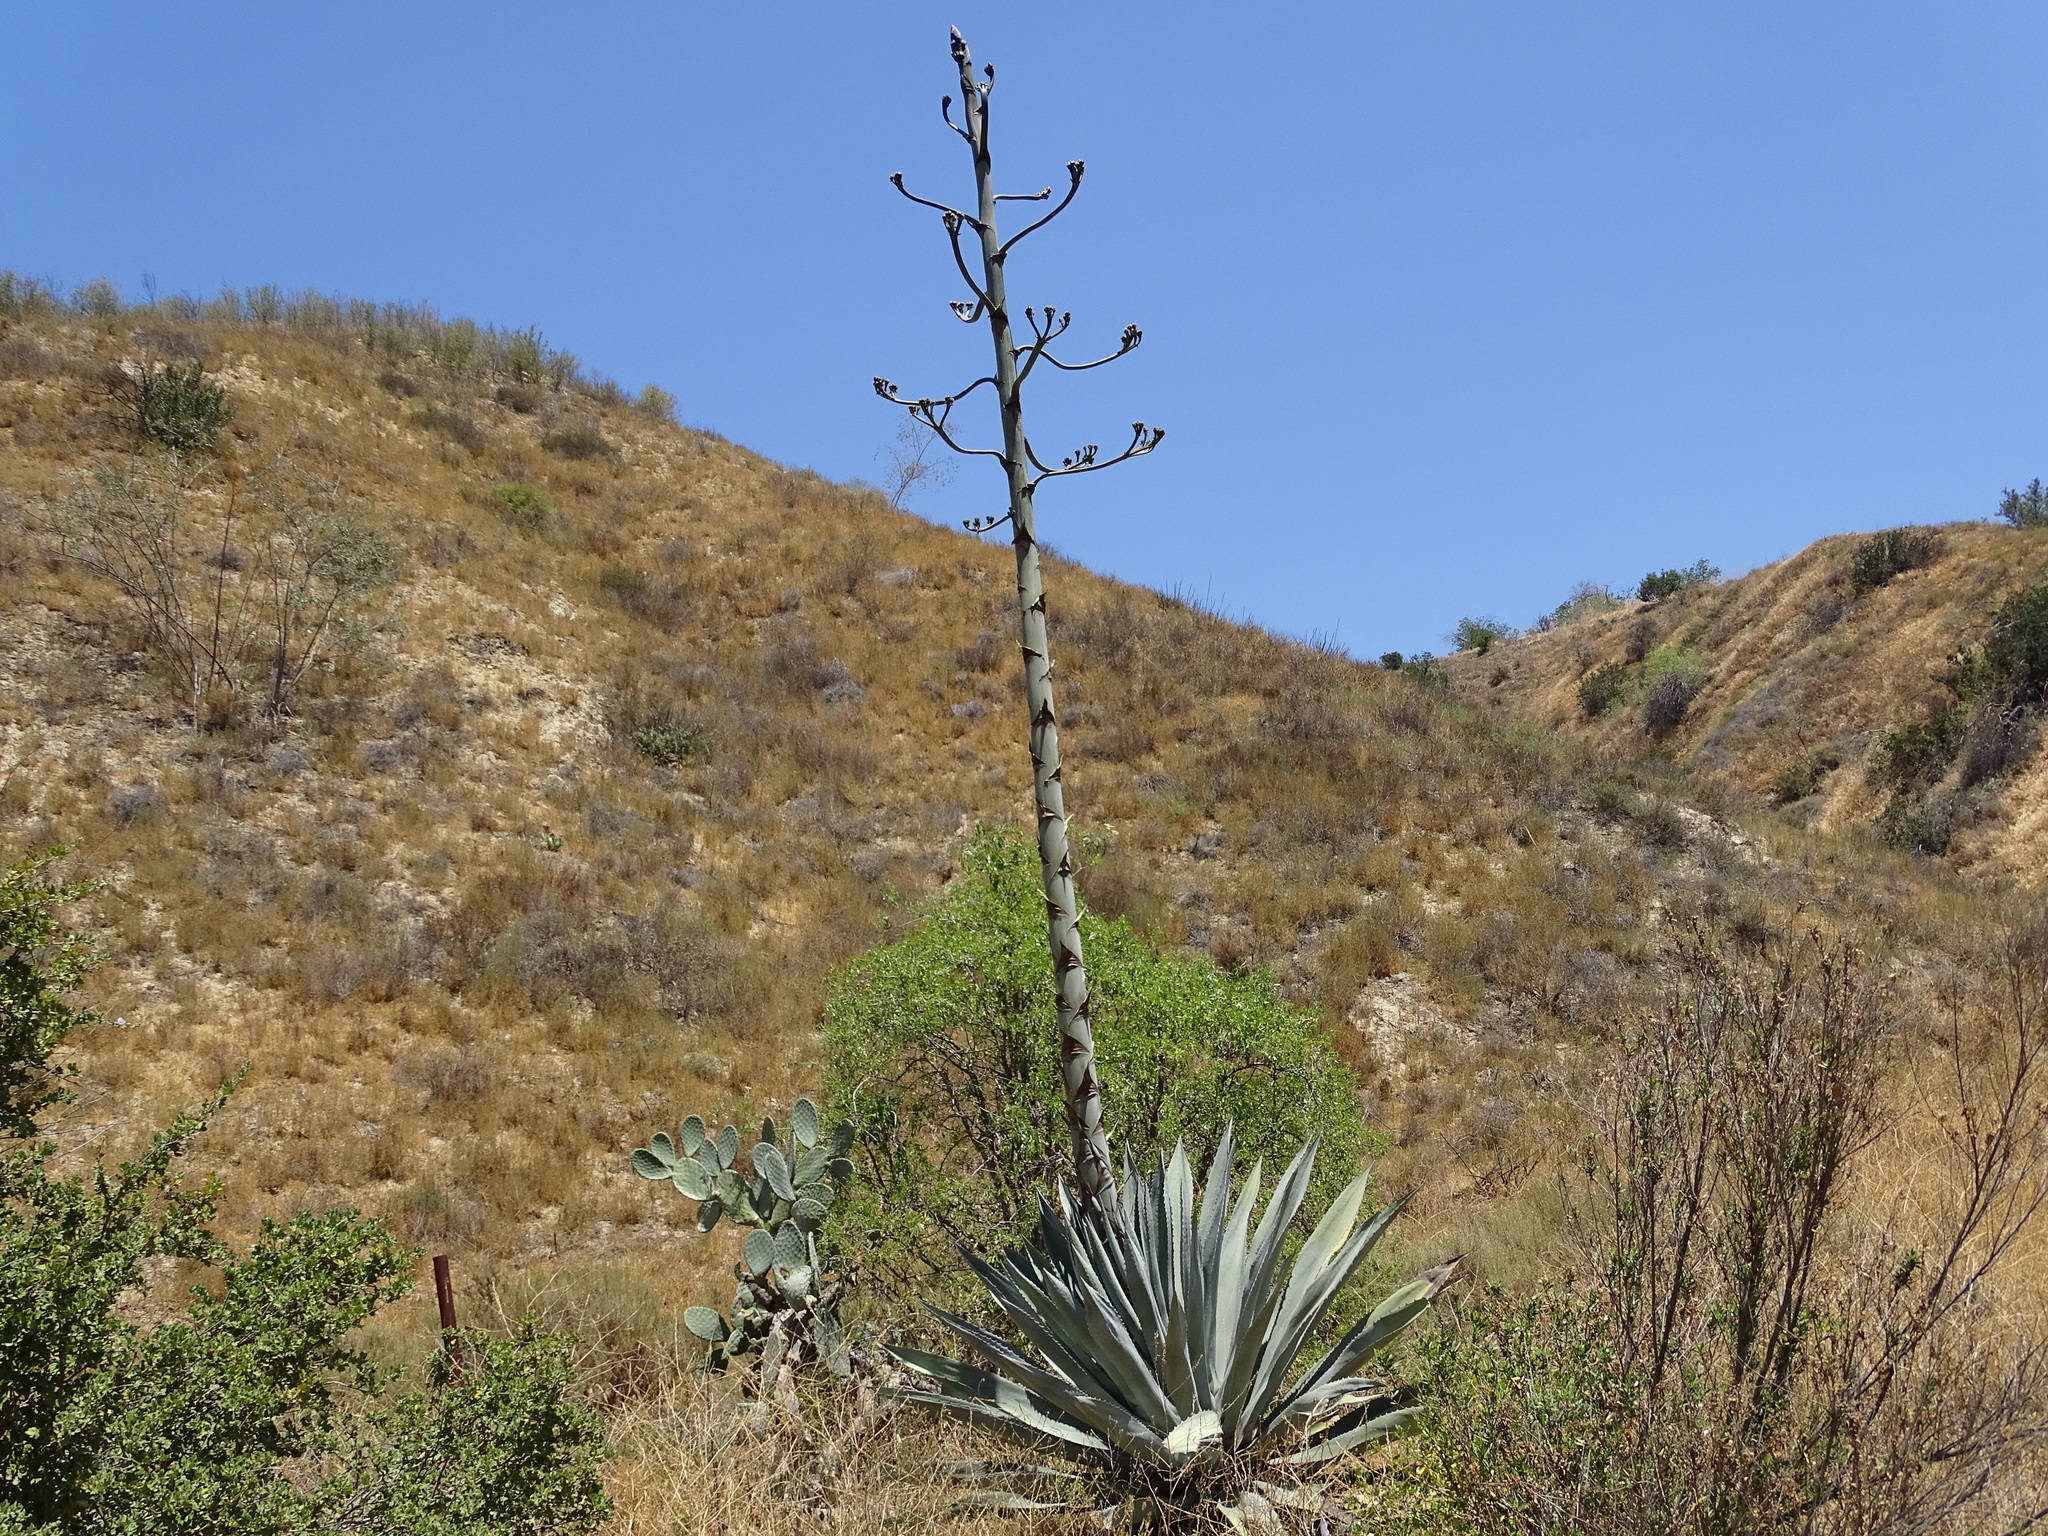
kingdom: Plantae
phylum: Tracheophyta
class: Liliopsida
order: Asparagales
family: Asparagaceae
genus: Agave
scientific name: Agave americana
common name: Centuryplant
